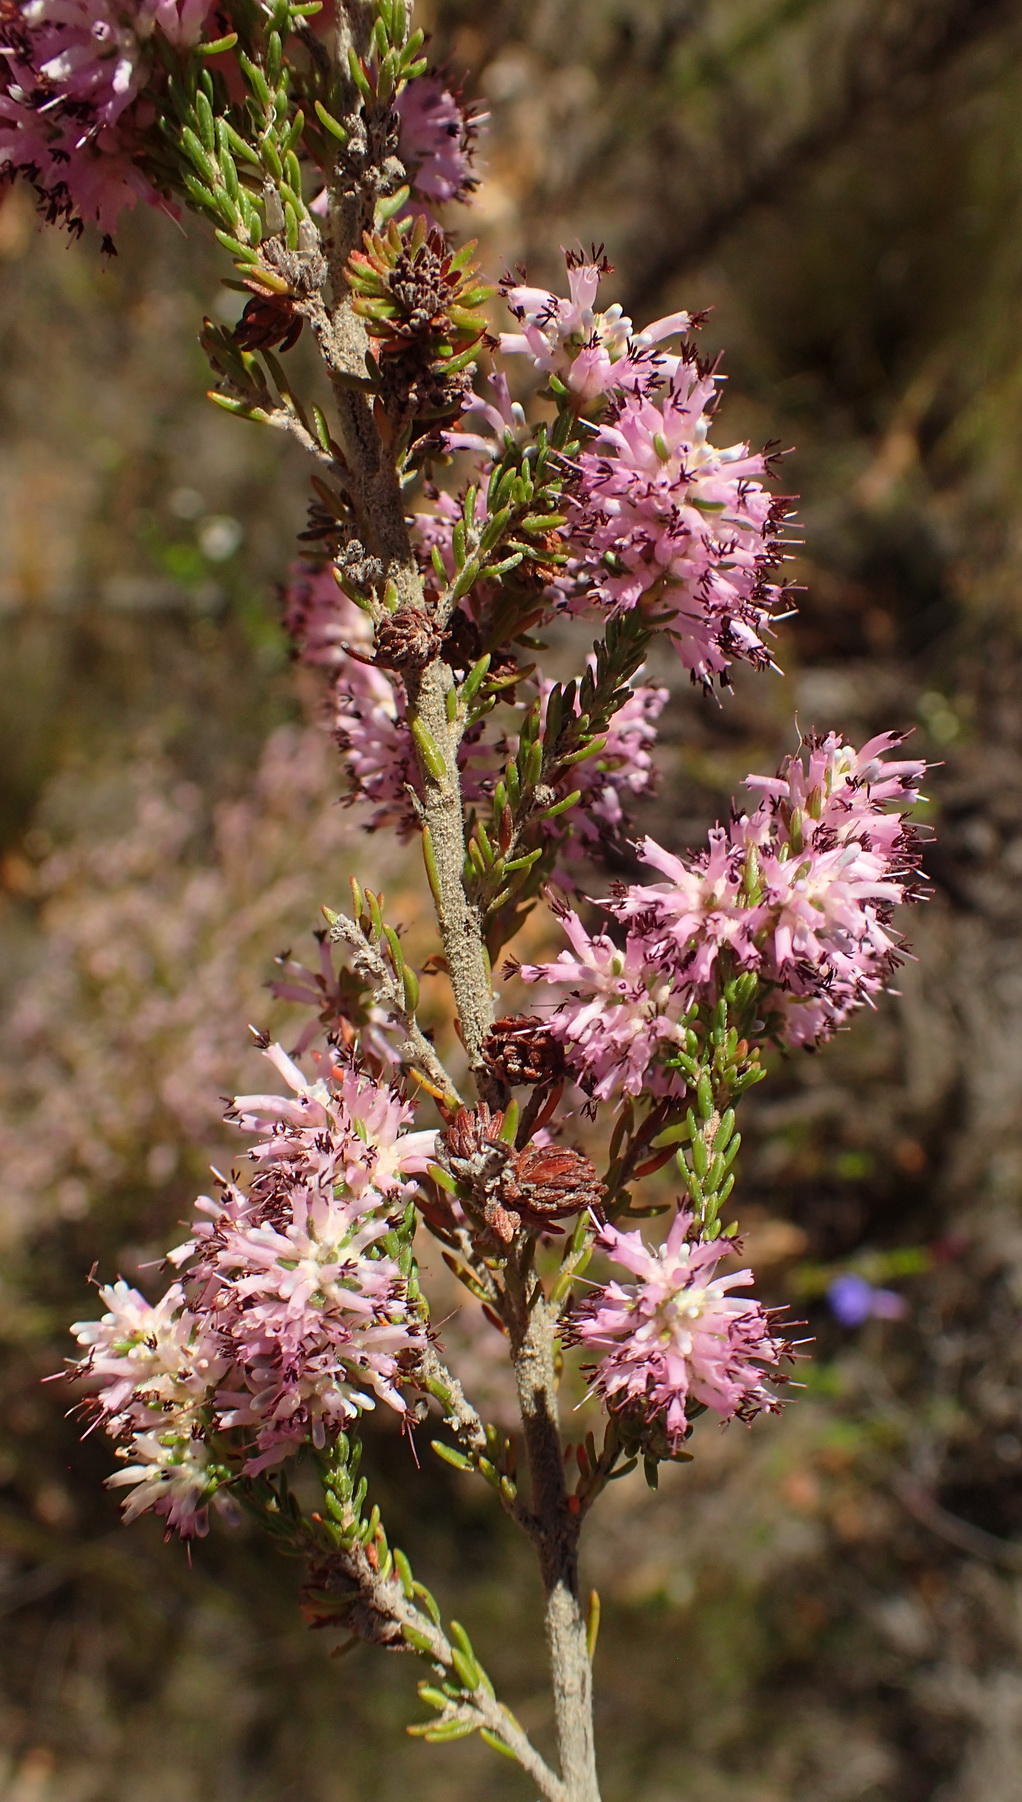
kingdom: Plantae
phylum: Tracheophyta
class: Magnoliopsida
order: Ericales
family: Ericaceae
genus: Erica
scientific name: Erica uberiflora
